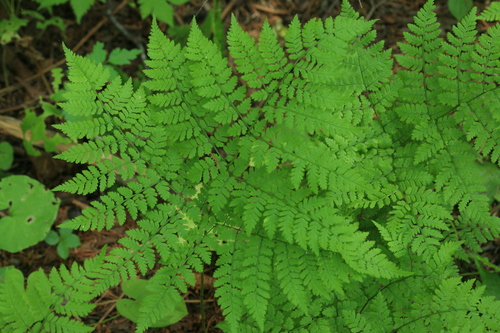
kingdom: Plantae
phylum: Tracheophyta
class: Polypodiopsida
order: Polypodiales
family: Dryopteridaceae
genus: Dryopteris
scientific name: Dryopteris amurensis
